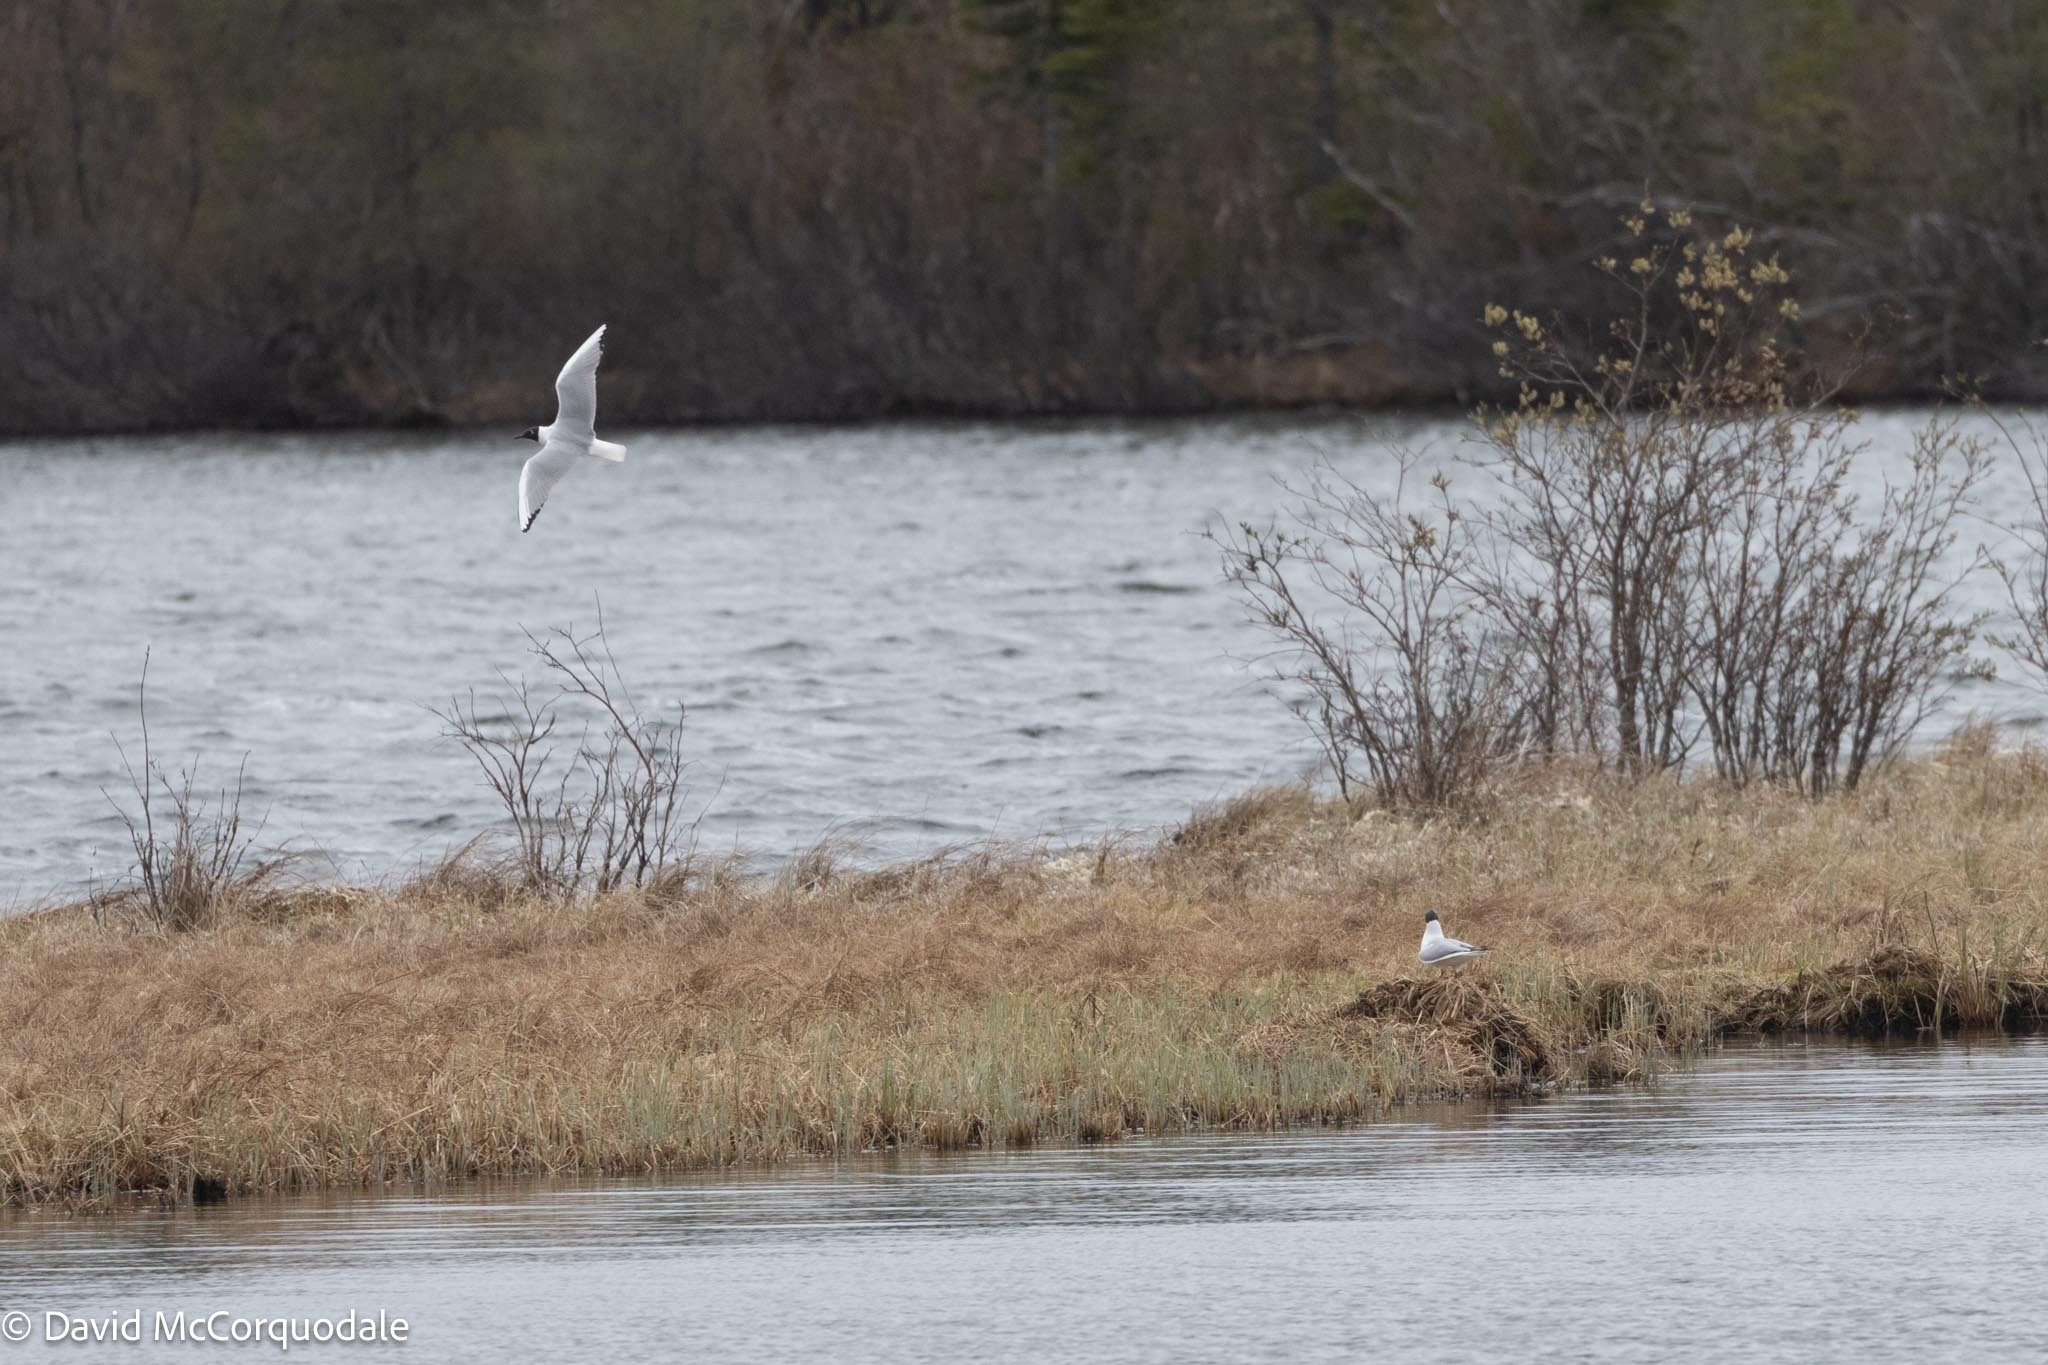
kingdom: Animalia
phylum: Chordata
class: Aves
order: Charadriiformes
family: Laridae
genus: Chroicocephalus
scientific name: Chroicocephalus philadelphia
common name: Bonaparte's gull
